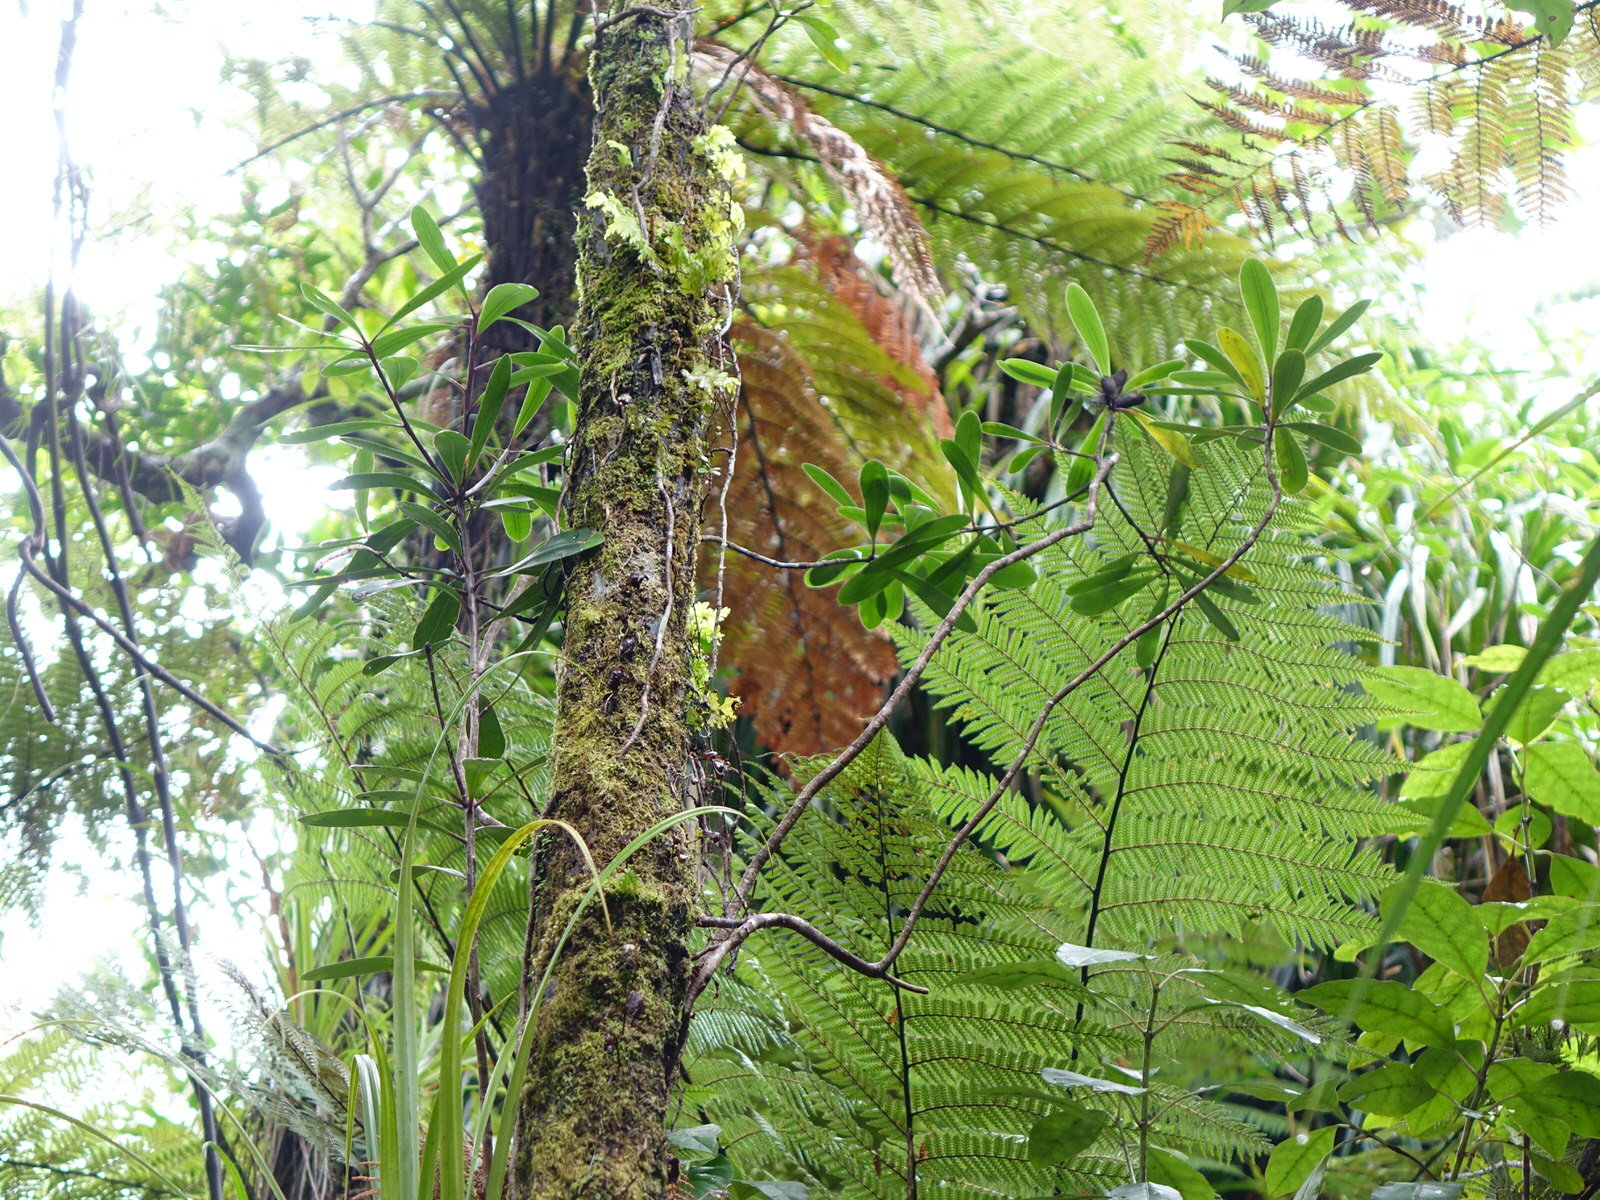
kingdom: Plantae
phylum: Tracheophyta
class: Magnoliopsida
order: Apiales
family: Pittosporaceae
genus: Pittosporum
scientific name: Pittosporum kirkii
